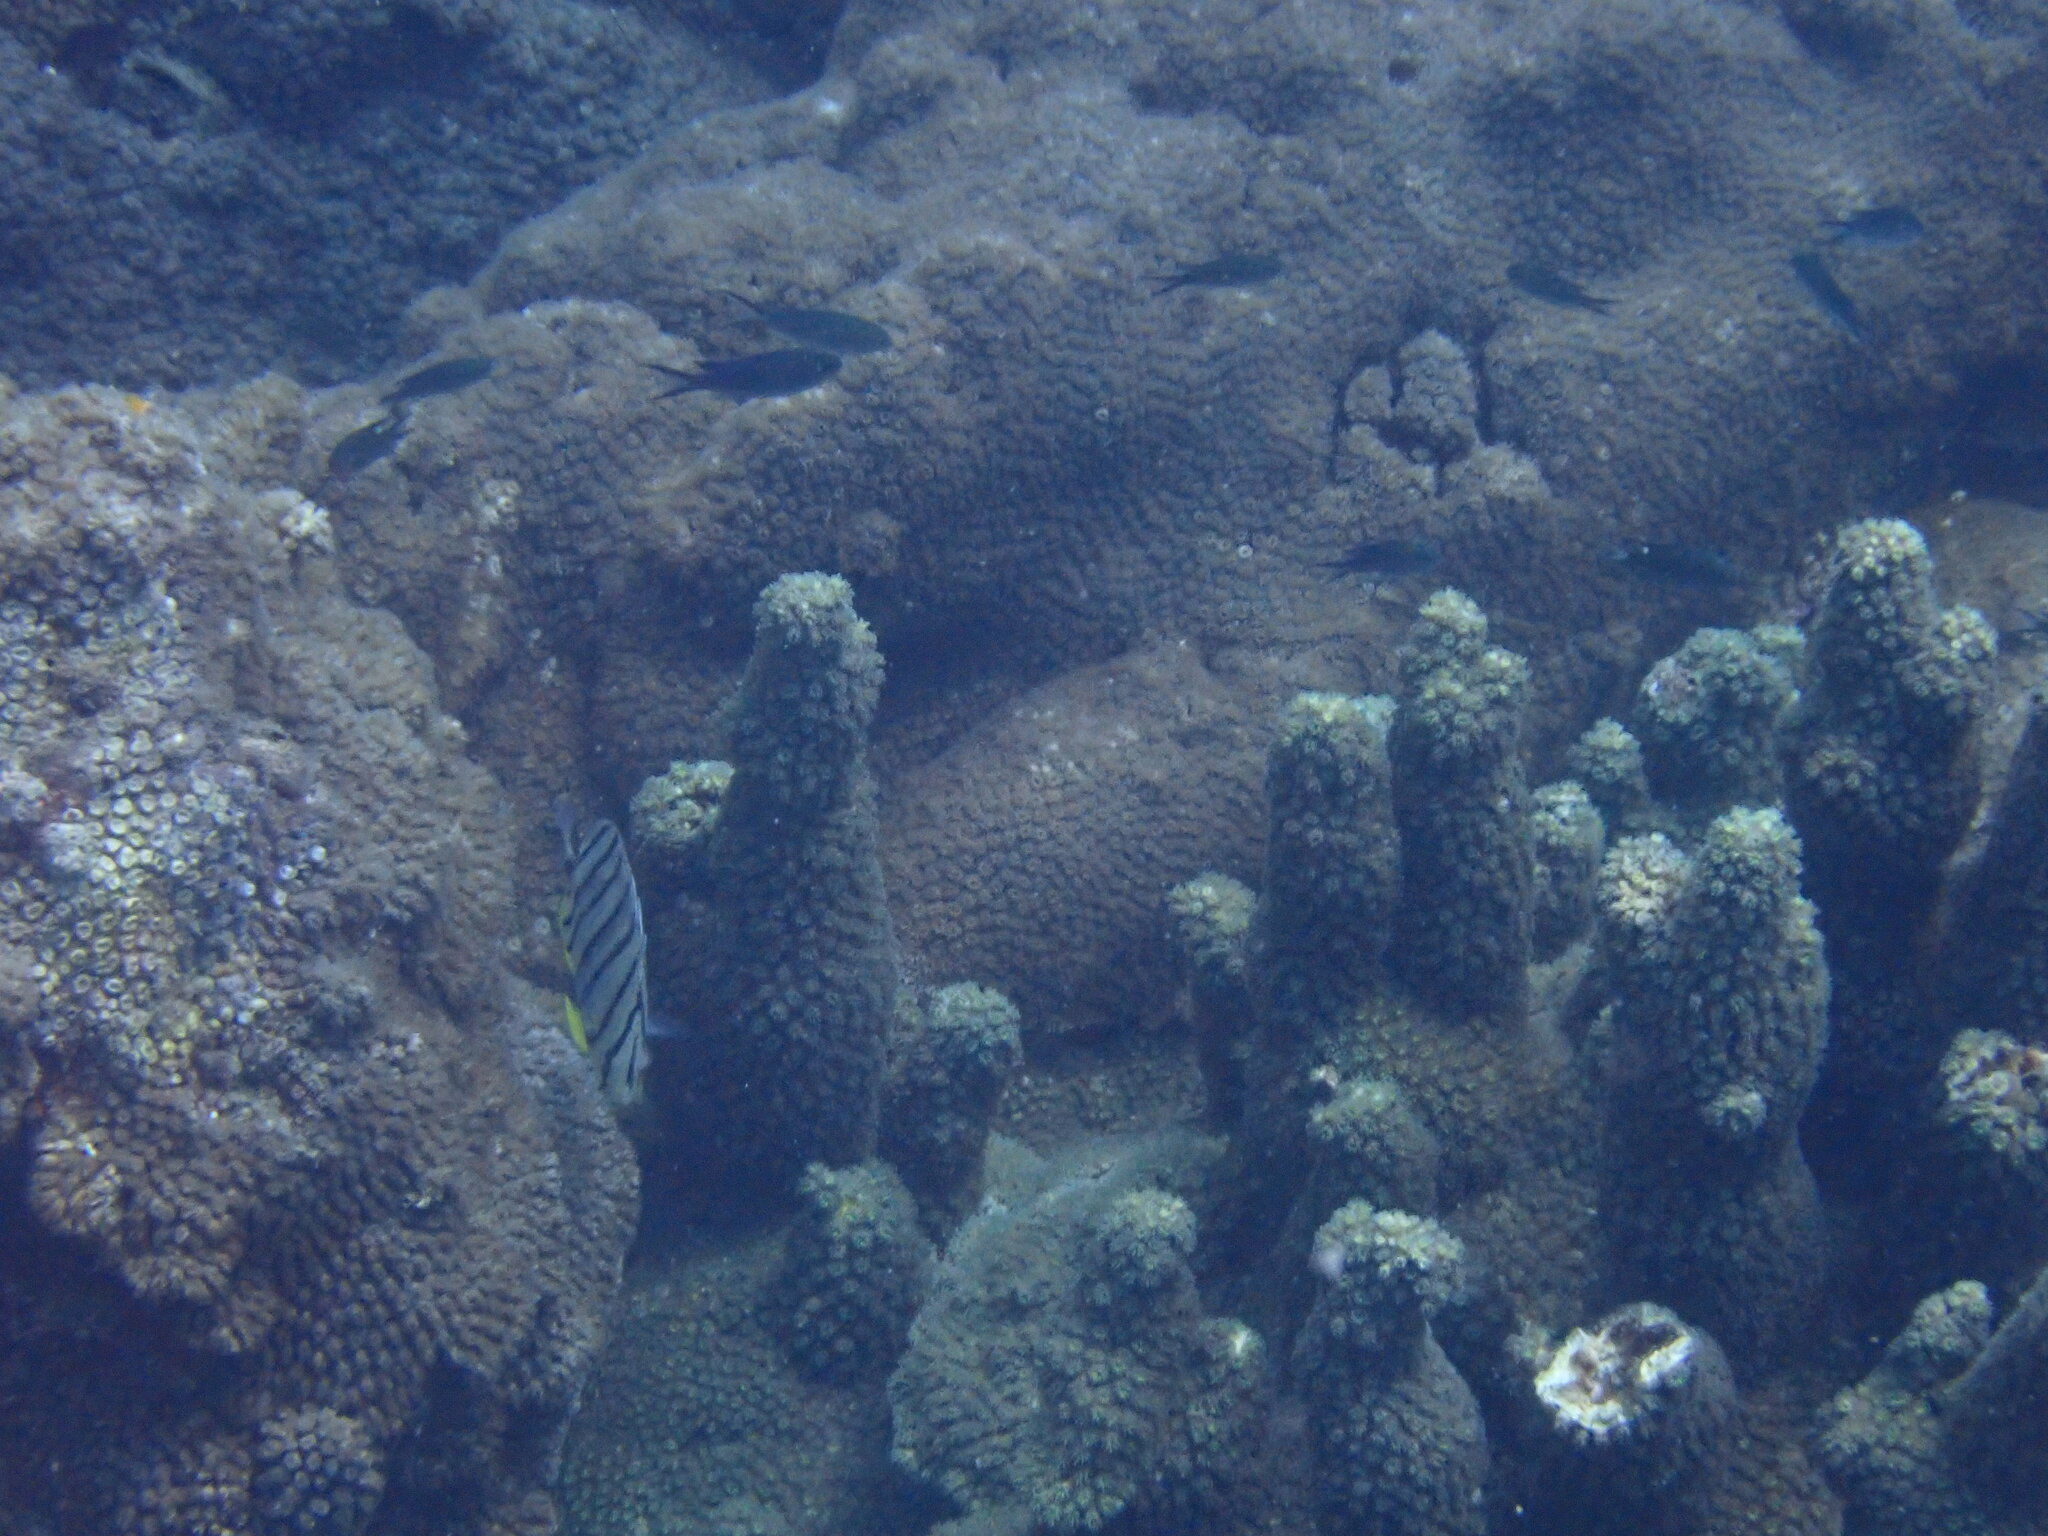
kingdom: Animalia
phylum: Chordata
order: Perciformes
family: Chaetodontidae
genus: Chaetodon
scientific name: Chaetodon octofasciatus
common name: Eightband butterflyfish
